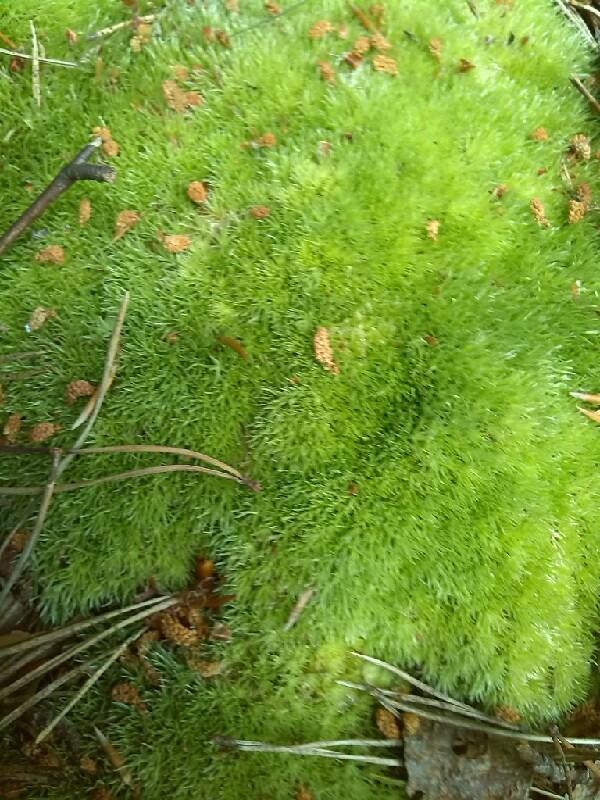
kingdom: Plantae
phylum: Bryophyta
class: Bryopsida
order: Dicranales
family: Leucobryaceae
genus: Leucobryum
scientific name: Leucobryum glaucum
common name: Large white-moss
